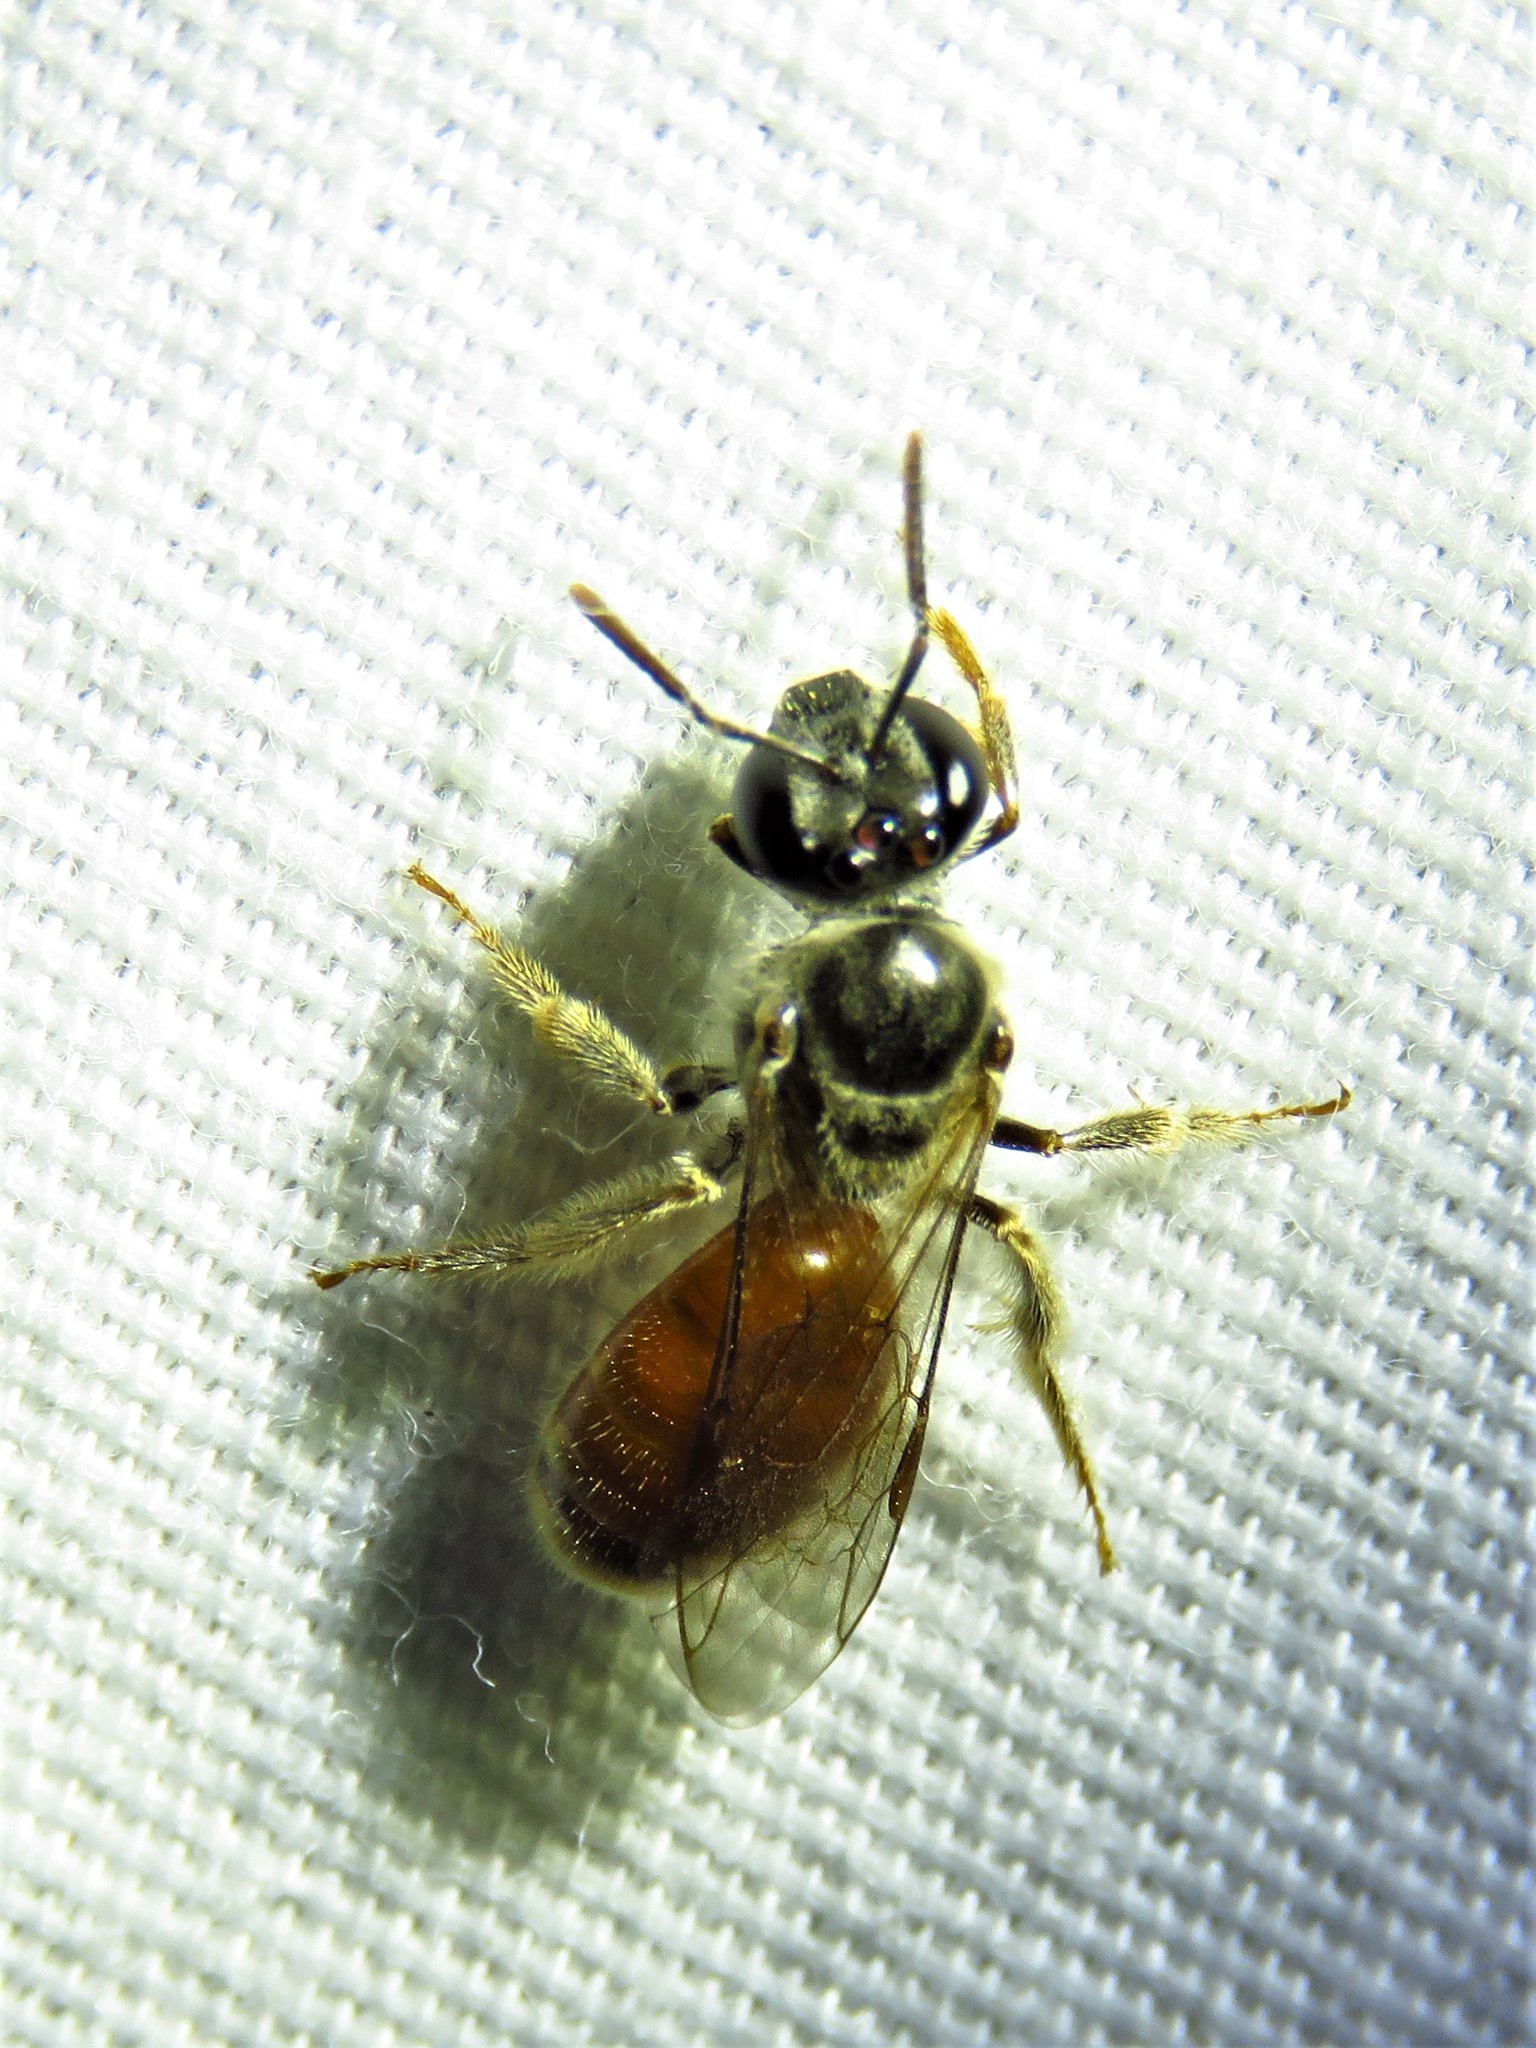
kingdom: Animalia
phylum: Arthropoda
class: Insecta
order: Hymenoptera
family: Halictidae
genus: Lasioglossum
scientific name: Lasioglossum texanum
